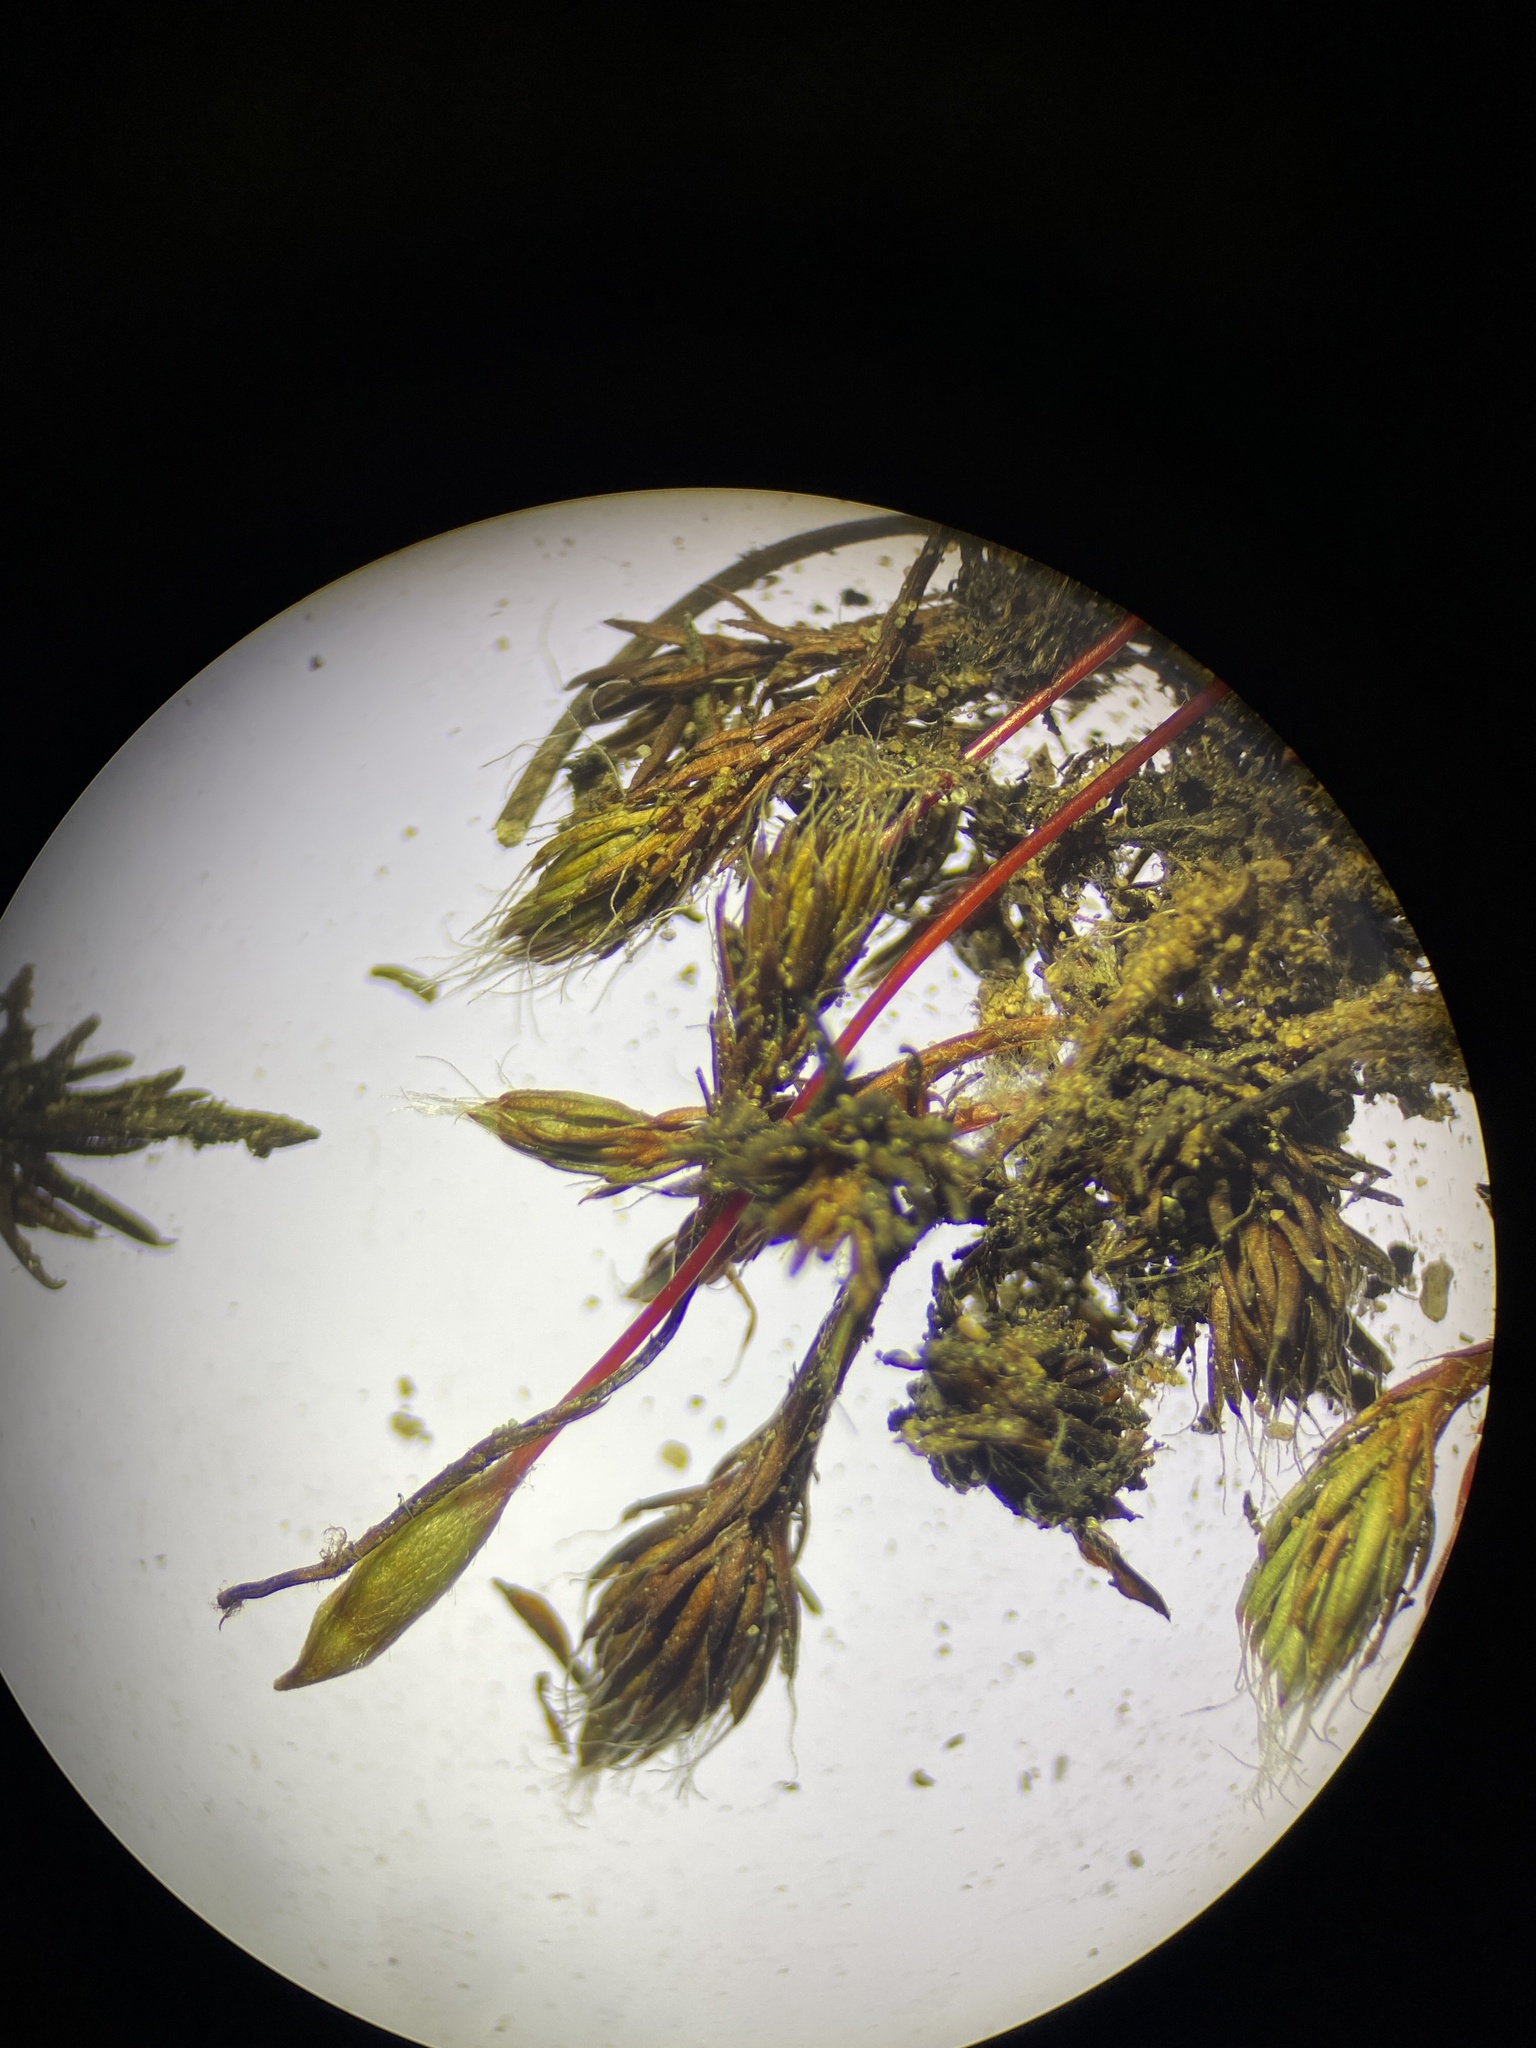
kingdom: Plantae
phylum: Bryophyta
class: Polytrichopsida
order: Polytrichales
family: Polytrichaceae
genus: Polytrichum
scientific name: Polytrichum piliferum
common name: Bristly haircap
